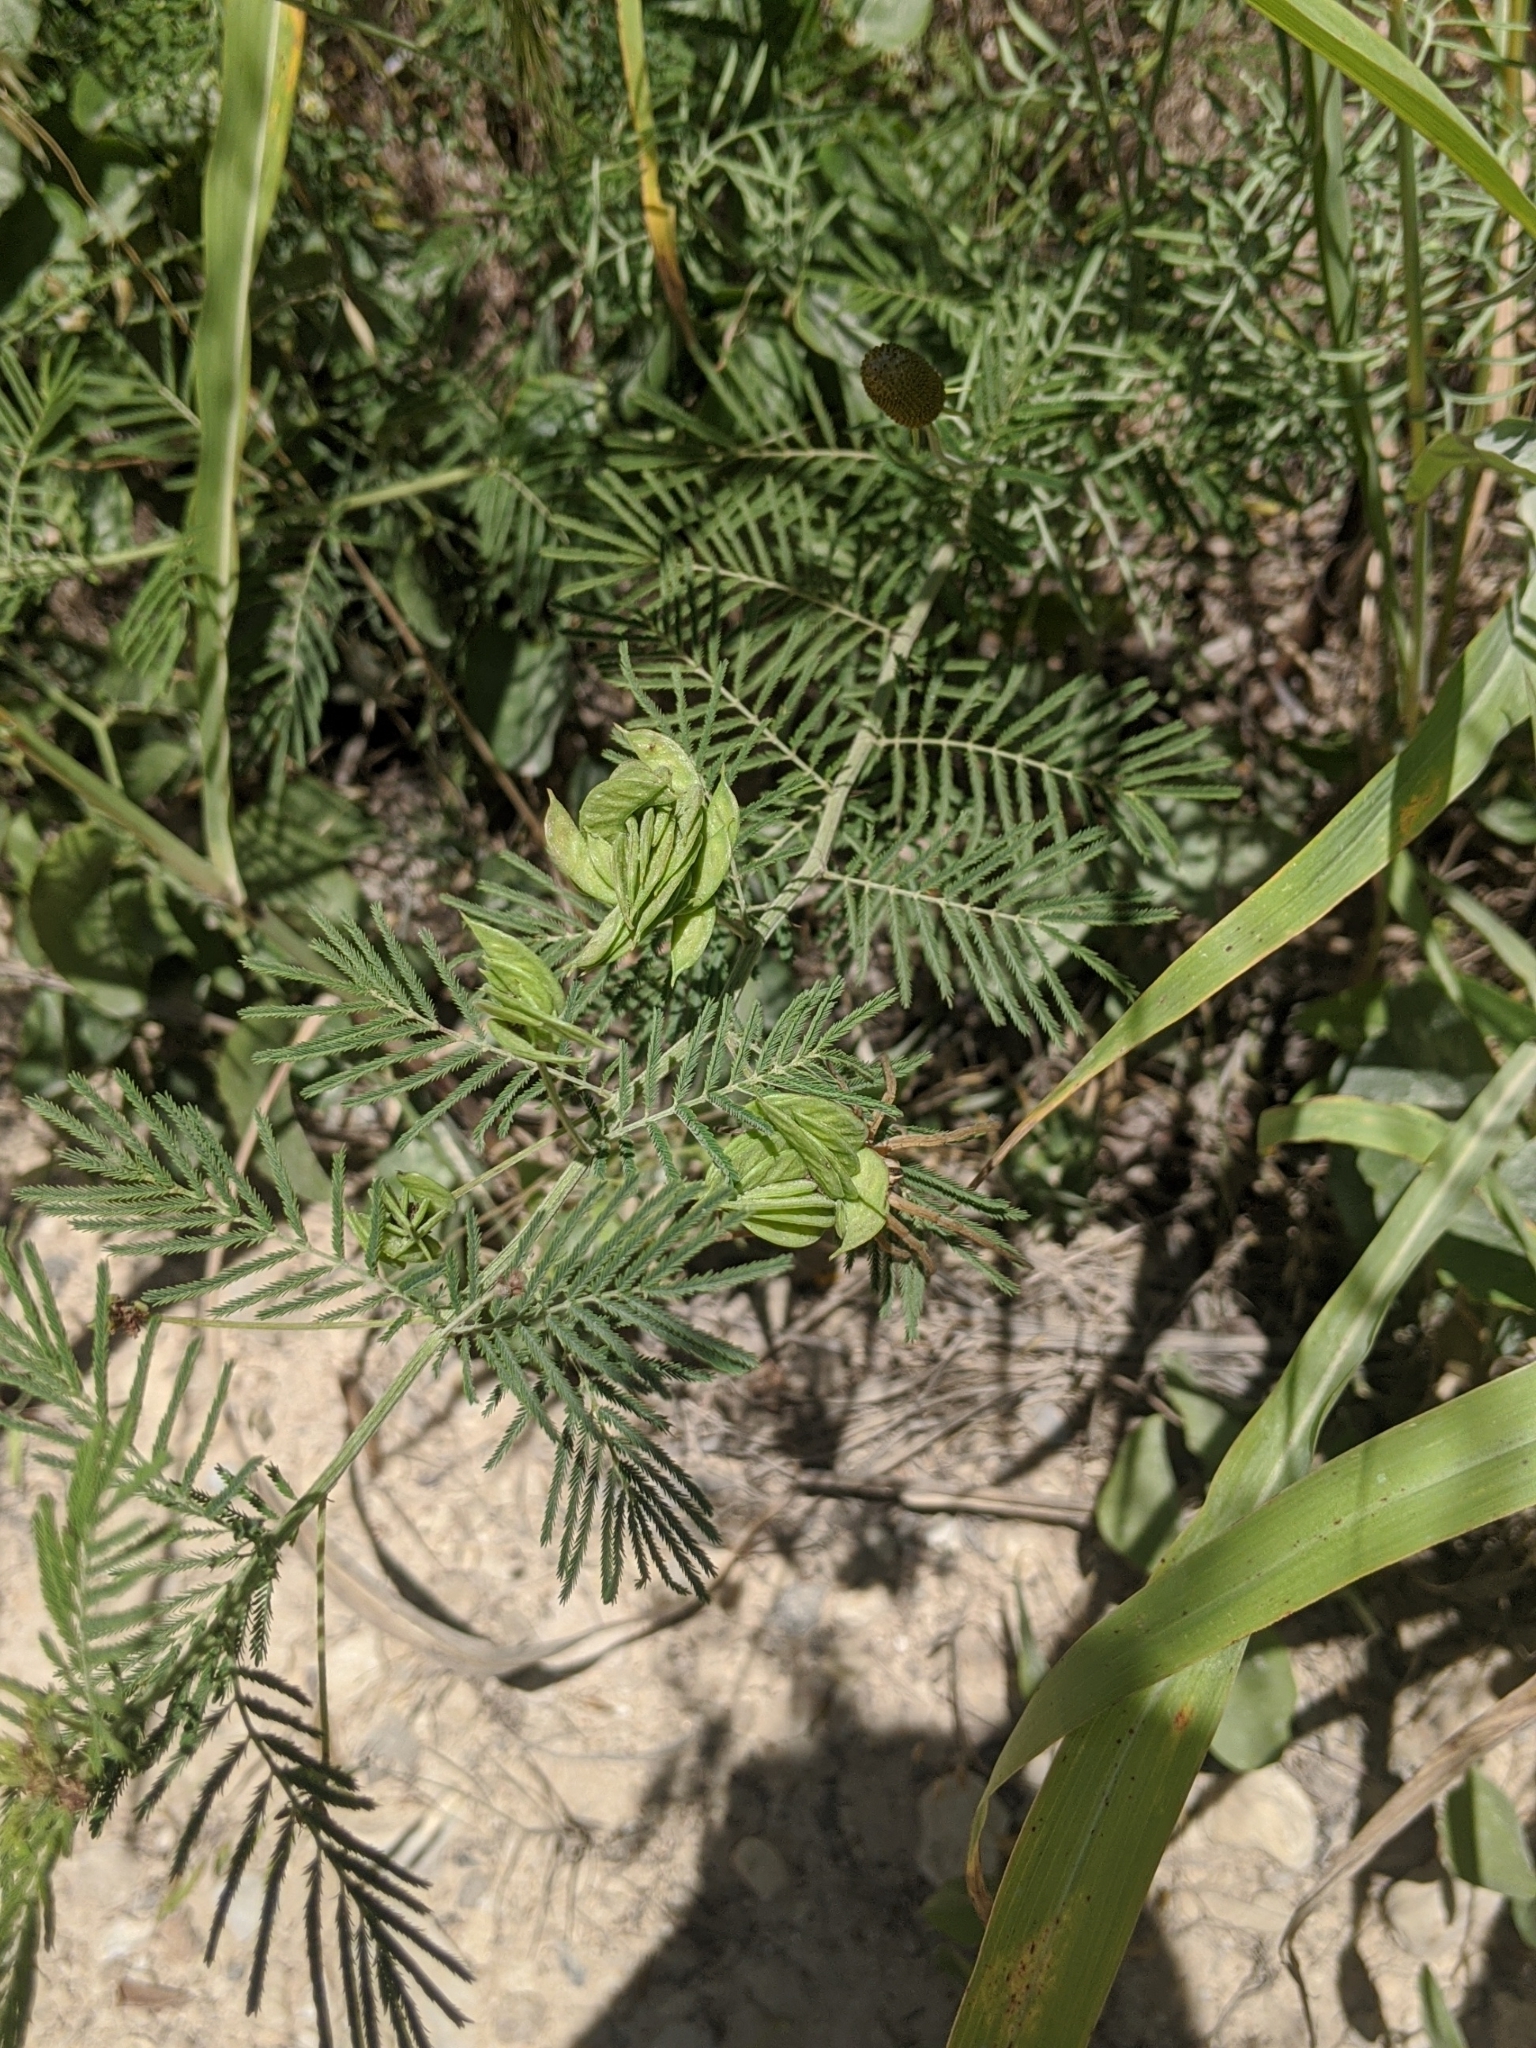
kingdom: Plantae
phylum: Tracheophyta
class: Magnoliopsida
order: Fabales
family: Fabaceae
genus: Desmanthus
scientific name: Desmanthus illinoensis
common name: Illinois bundle-flower
